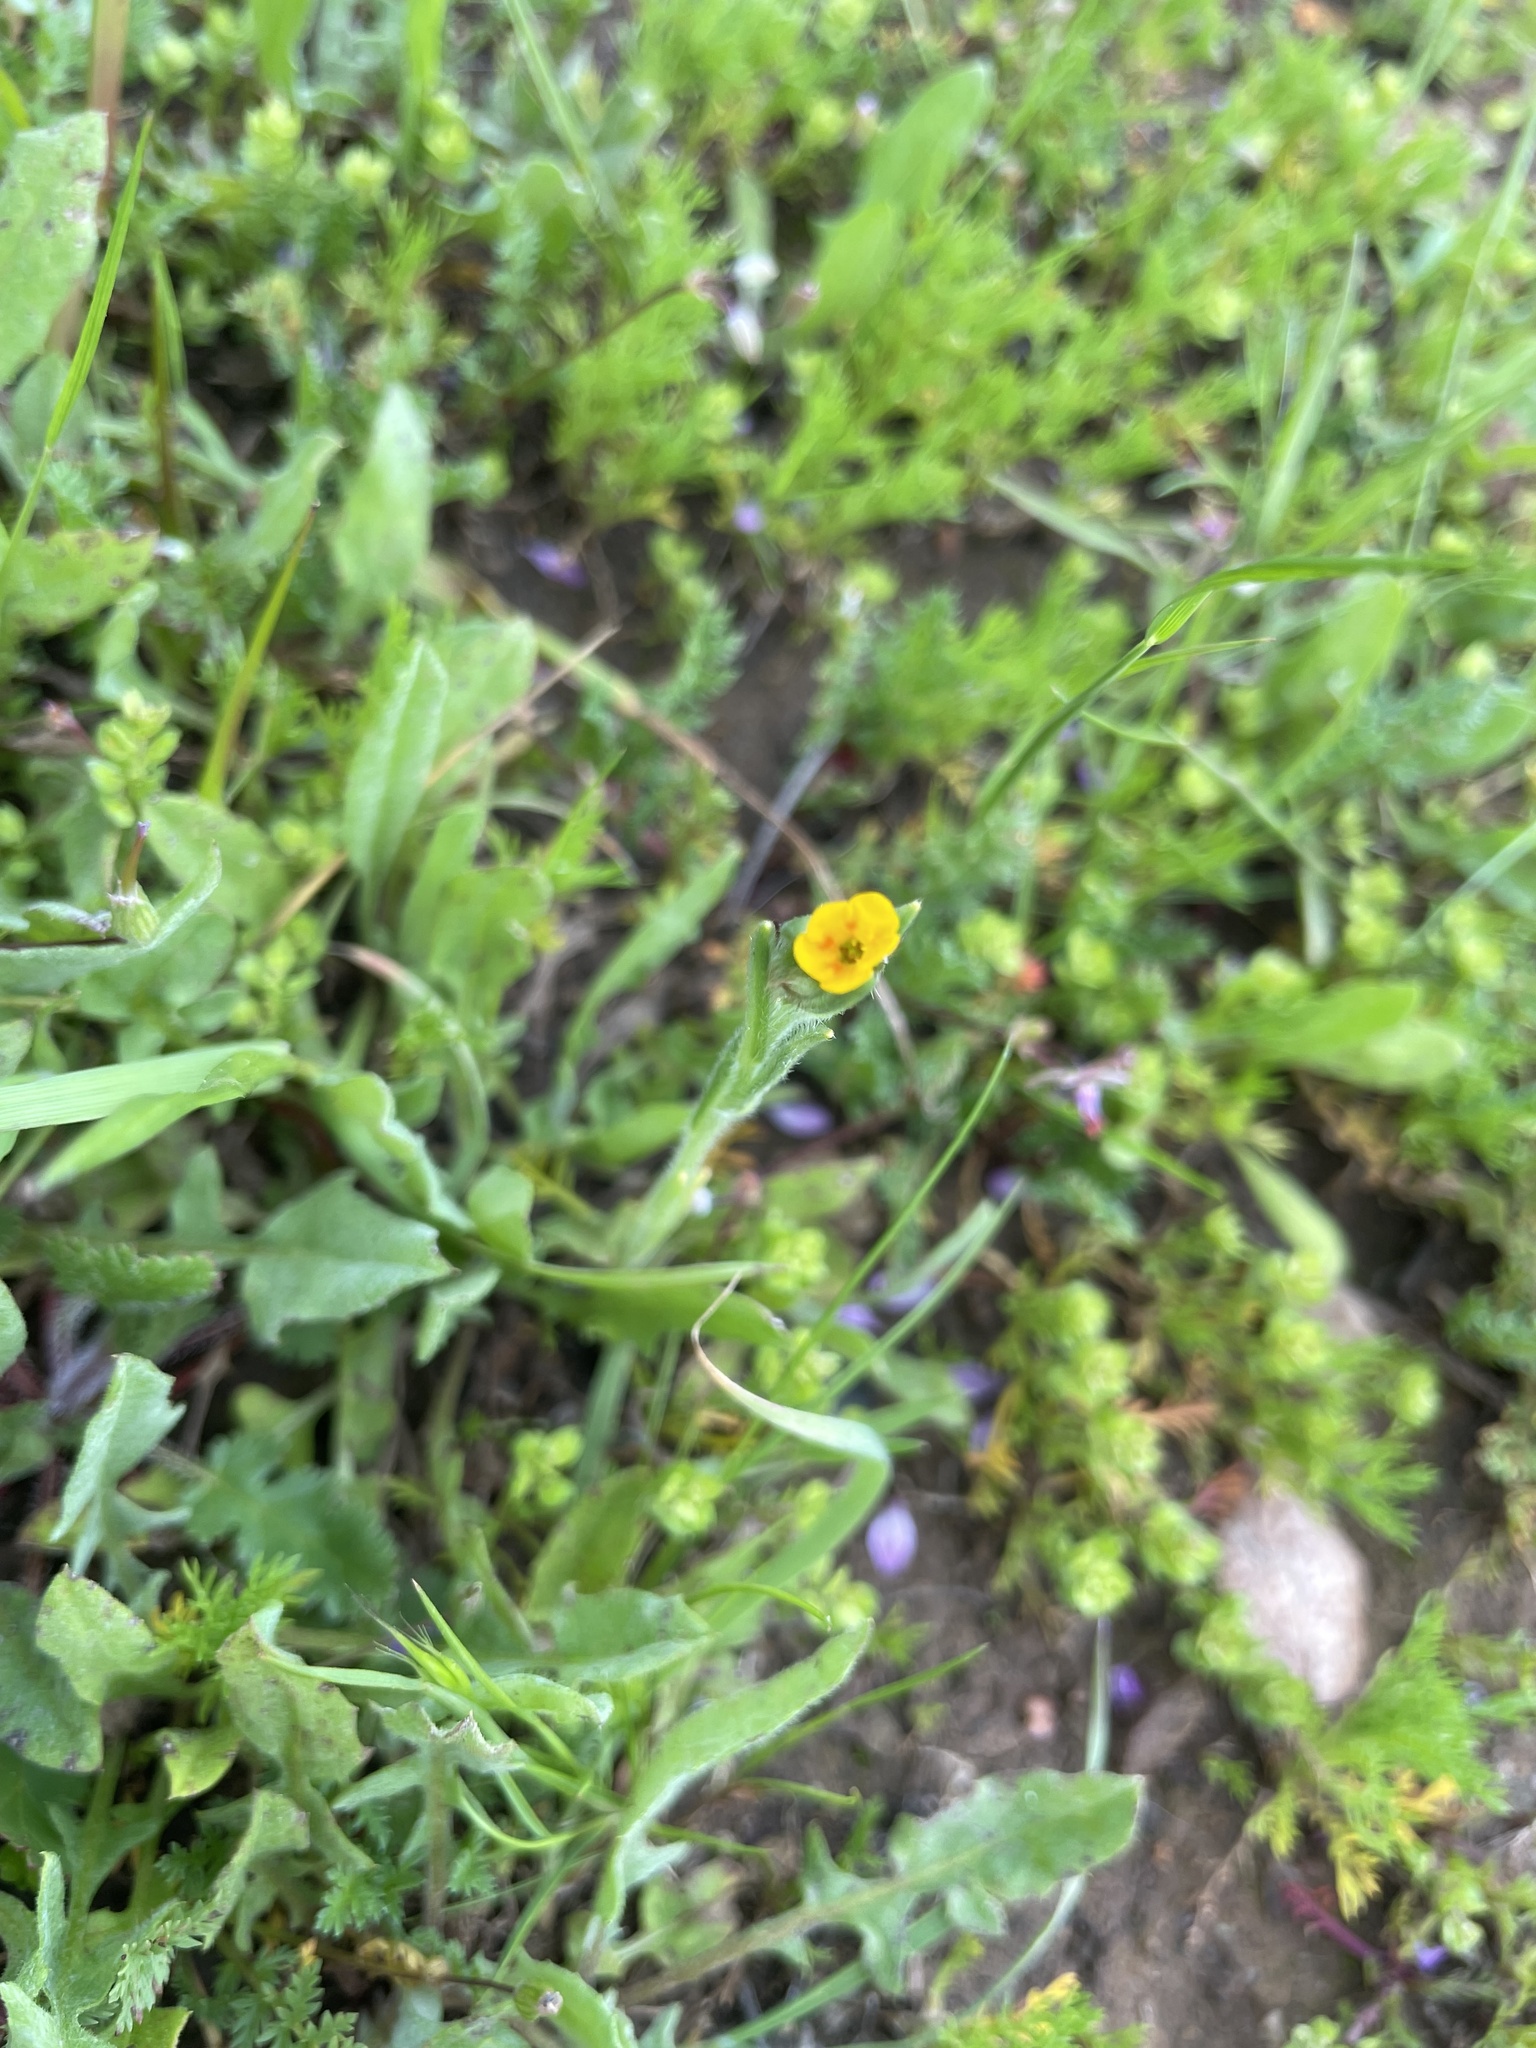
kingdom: Plantae
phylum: Tracheophyta
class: Magnoliopsida
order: Boraginales
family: Boraginaceae
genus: Amsinckia
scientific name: Amsinckia menziesii
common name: Menzies' fiddleneck
